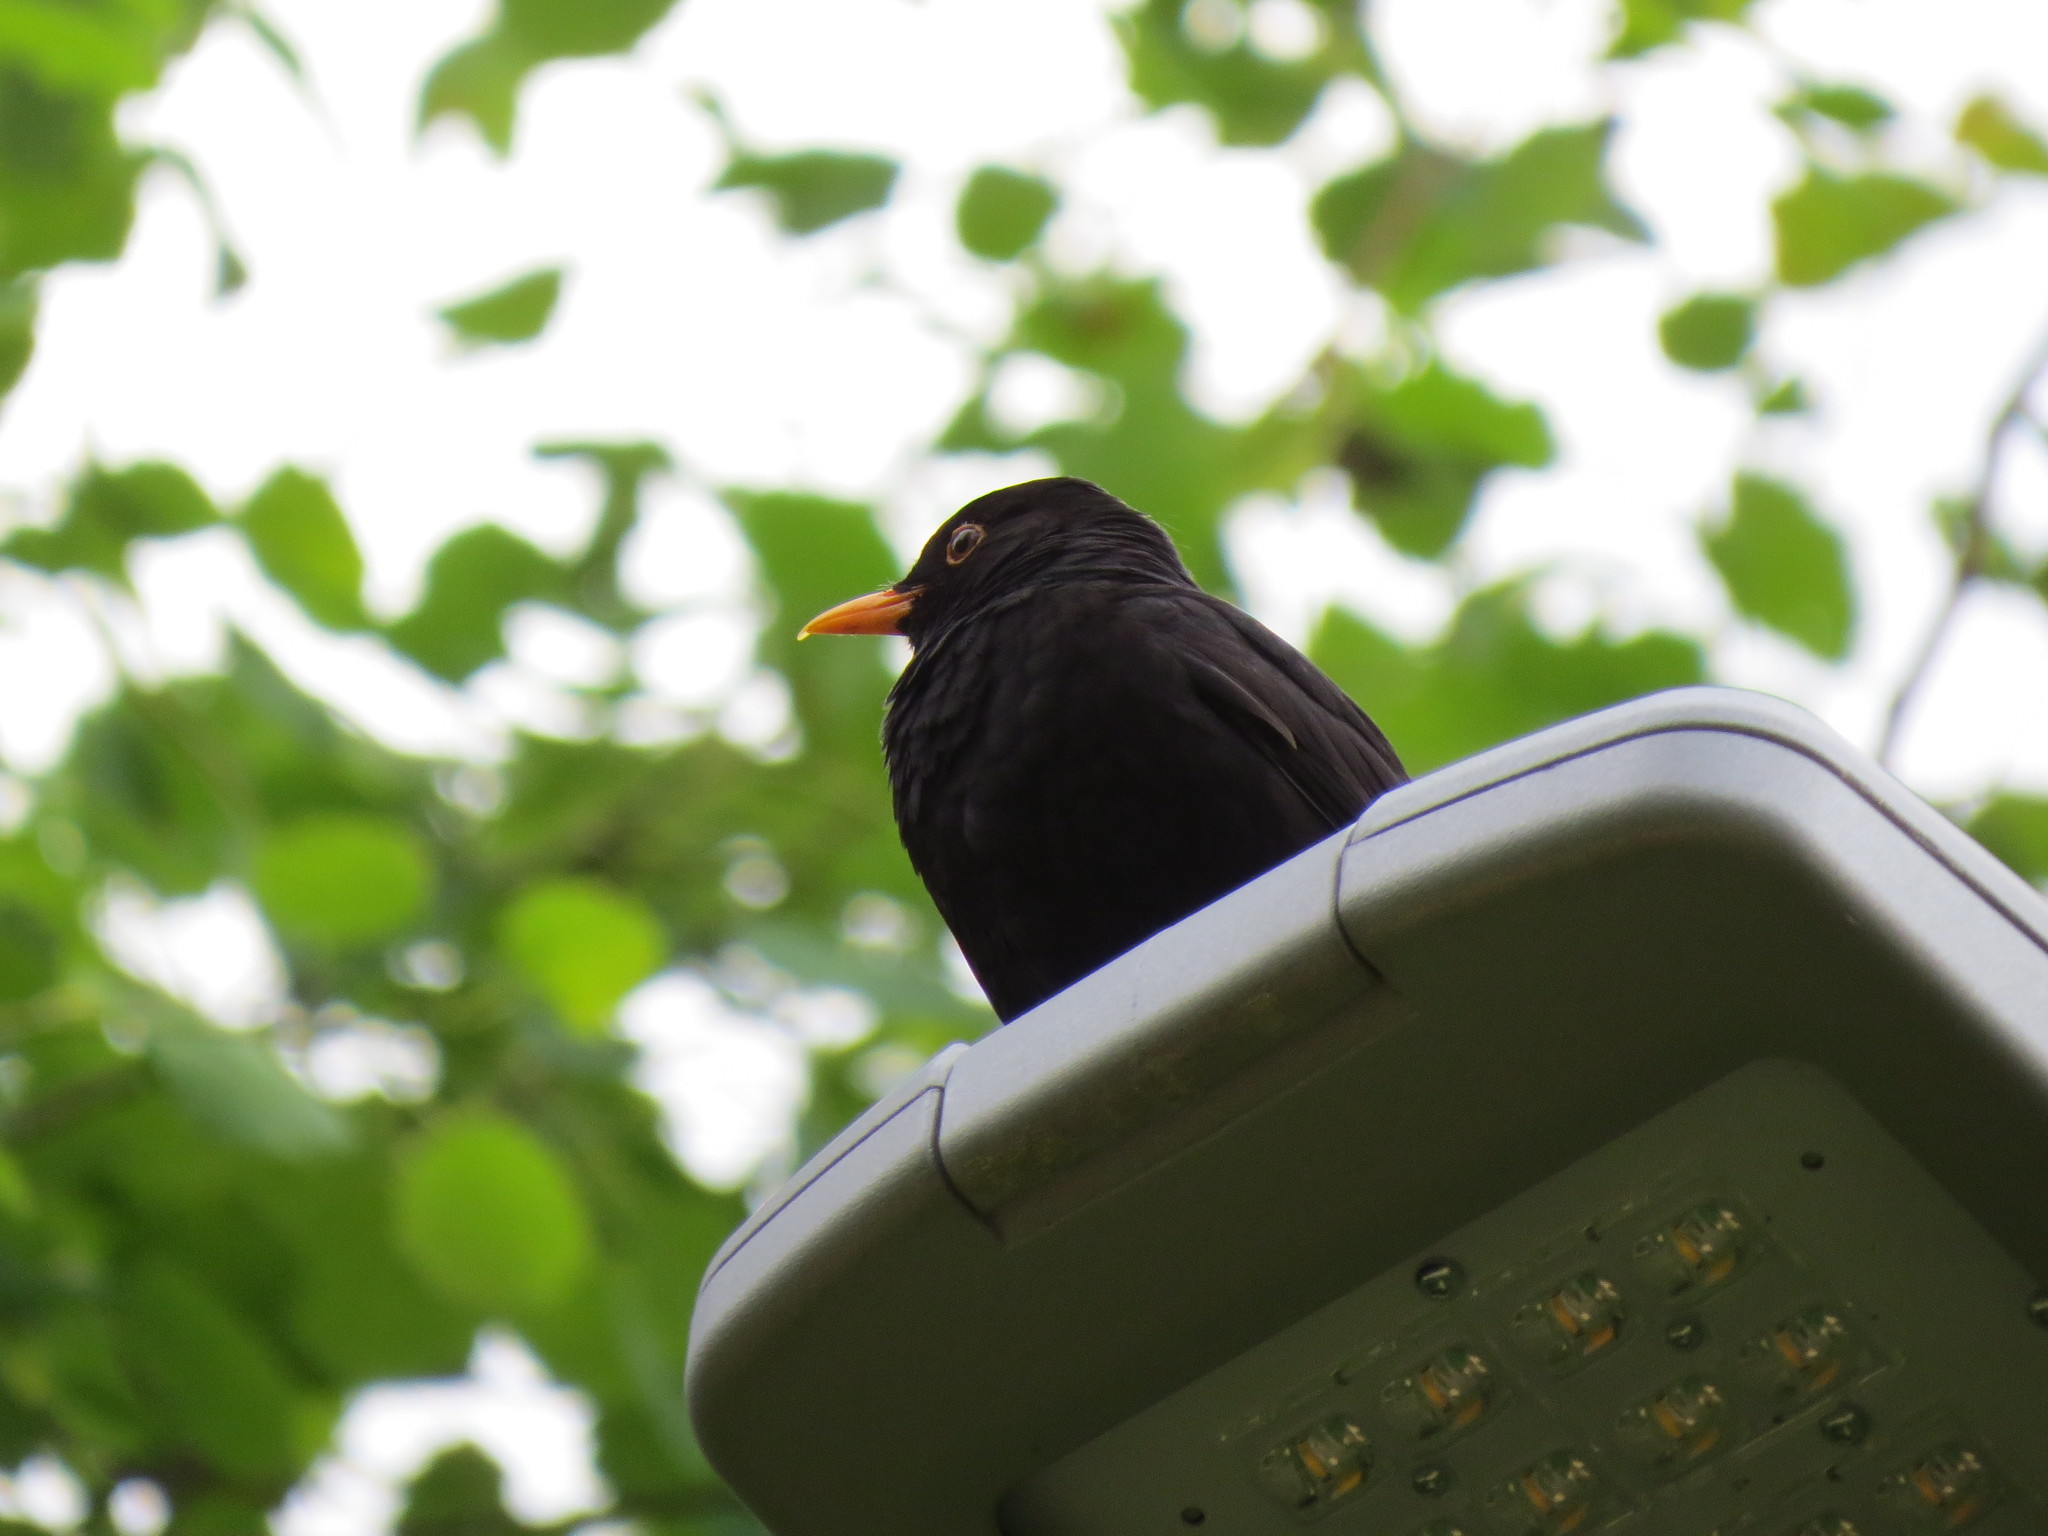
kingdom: Animalia
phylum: Chordata
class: Aves
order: Passeriformes
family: Turdidae
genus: Turdus
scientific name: Turdus merula
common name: Common blackbird
